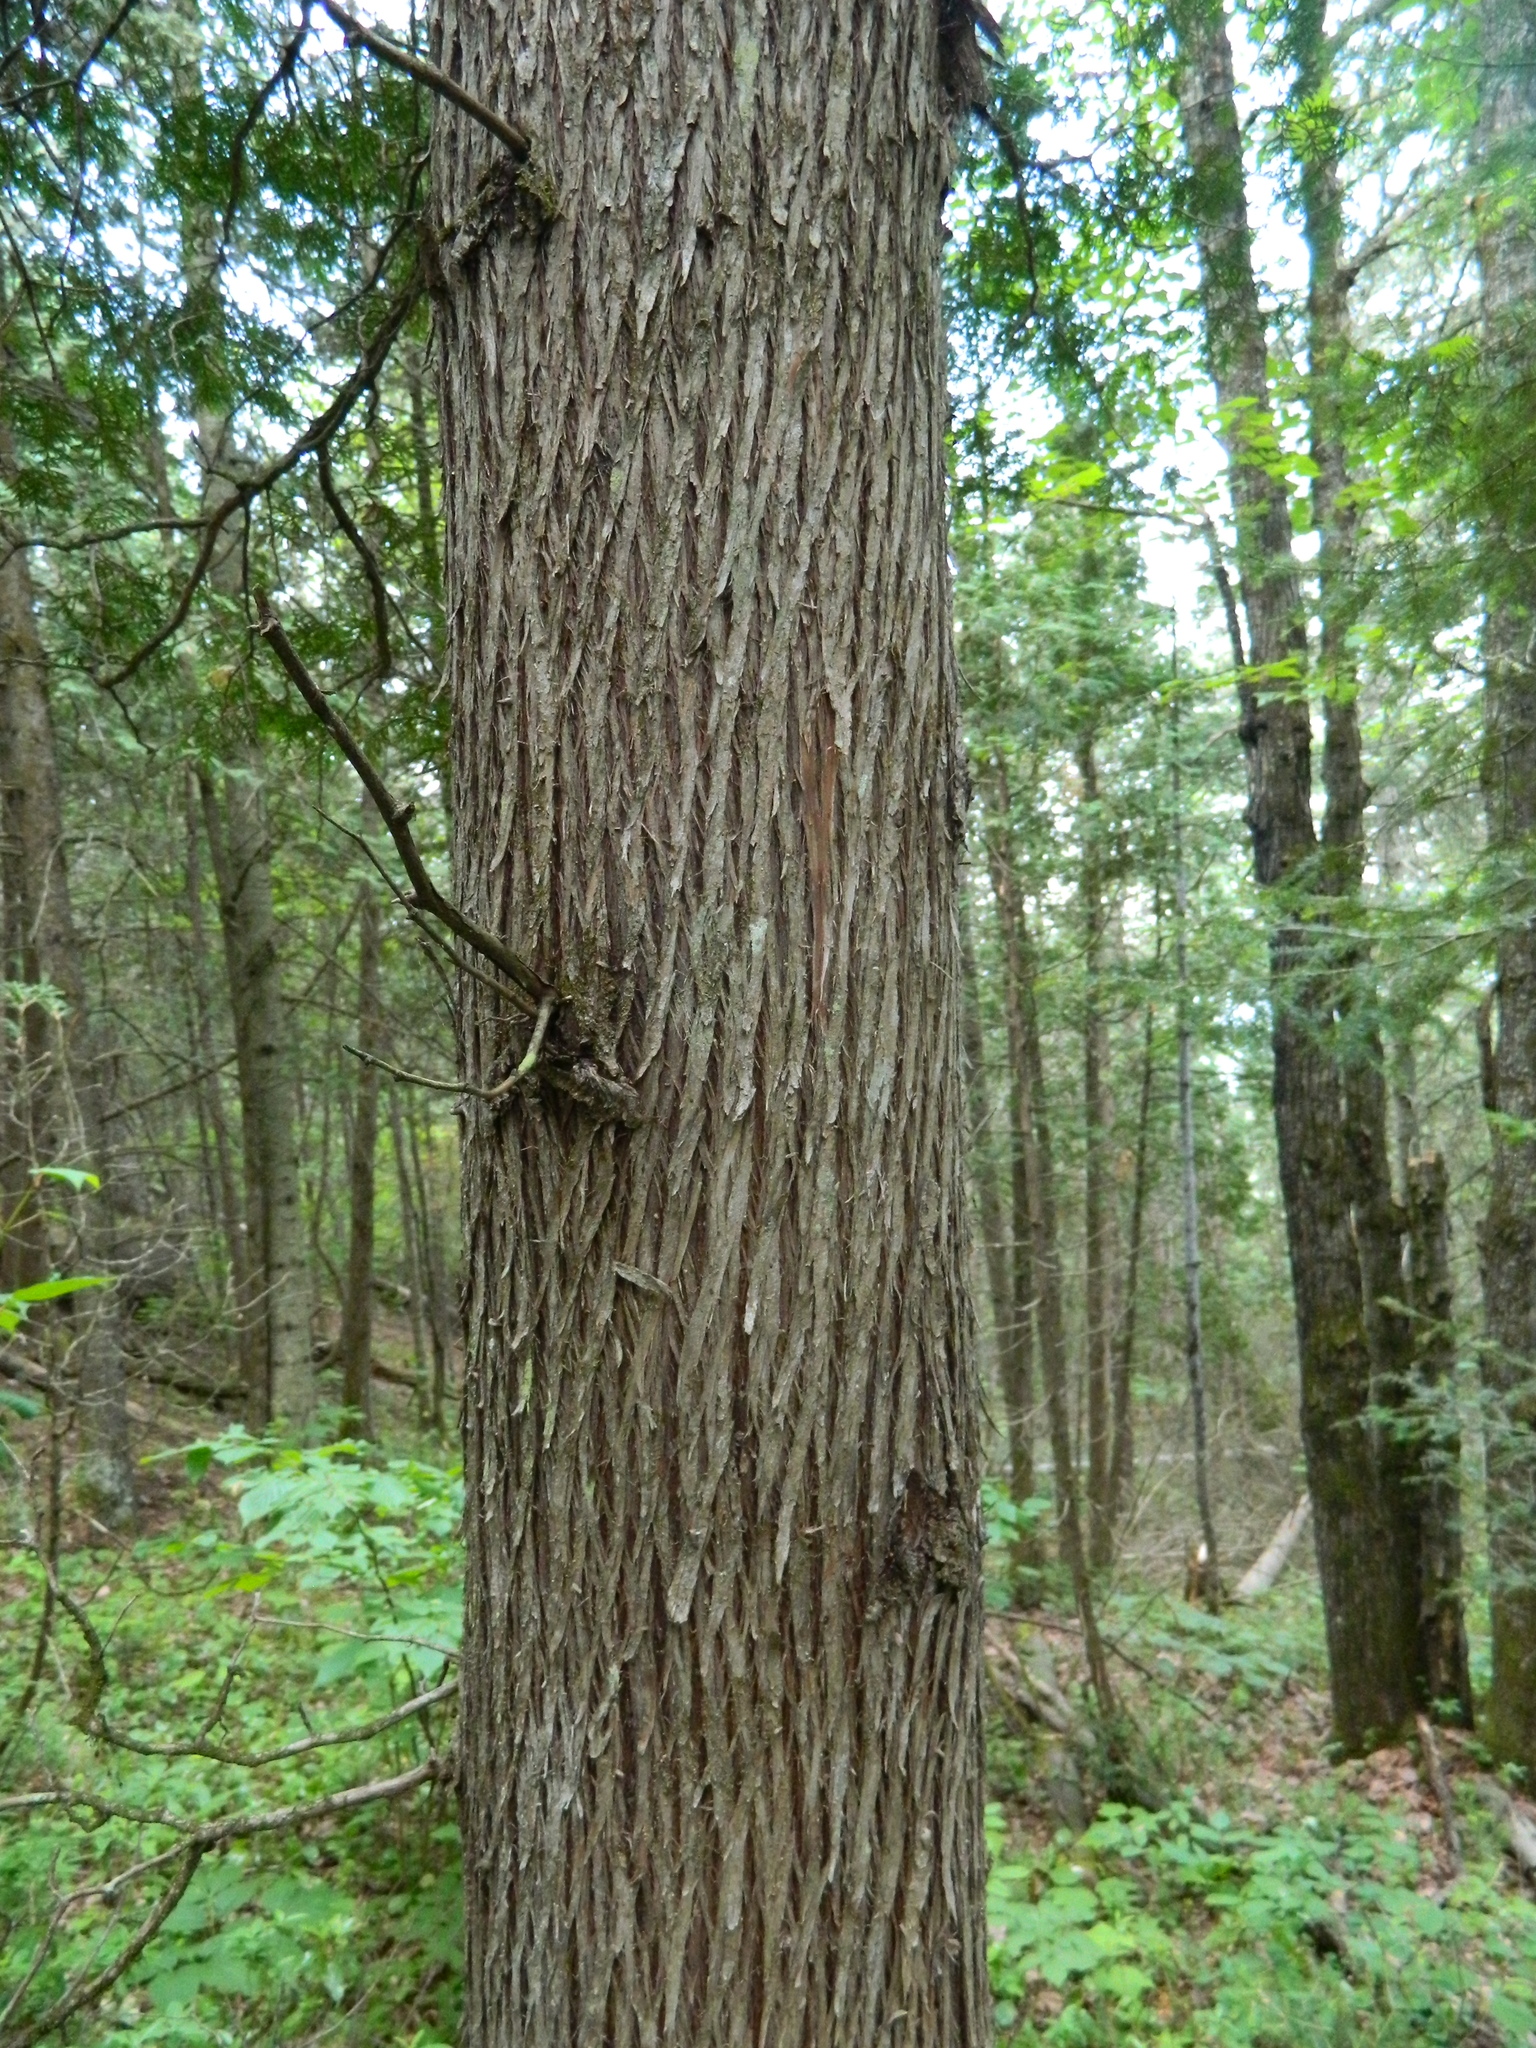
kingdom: Plantae
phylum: Tracheophyta
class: Pinopsida
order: Pinales
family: Cupressaceae
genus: Thuja
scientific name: Thuja occidentalis
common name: Northern white-cedar
